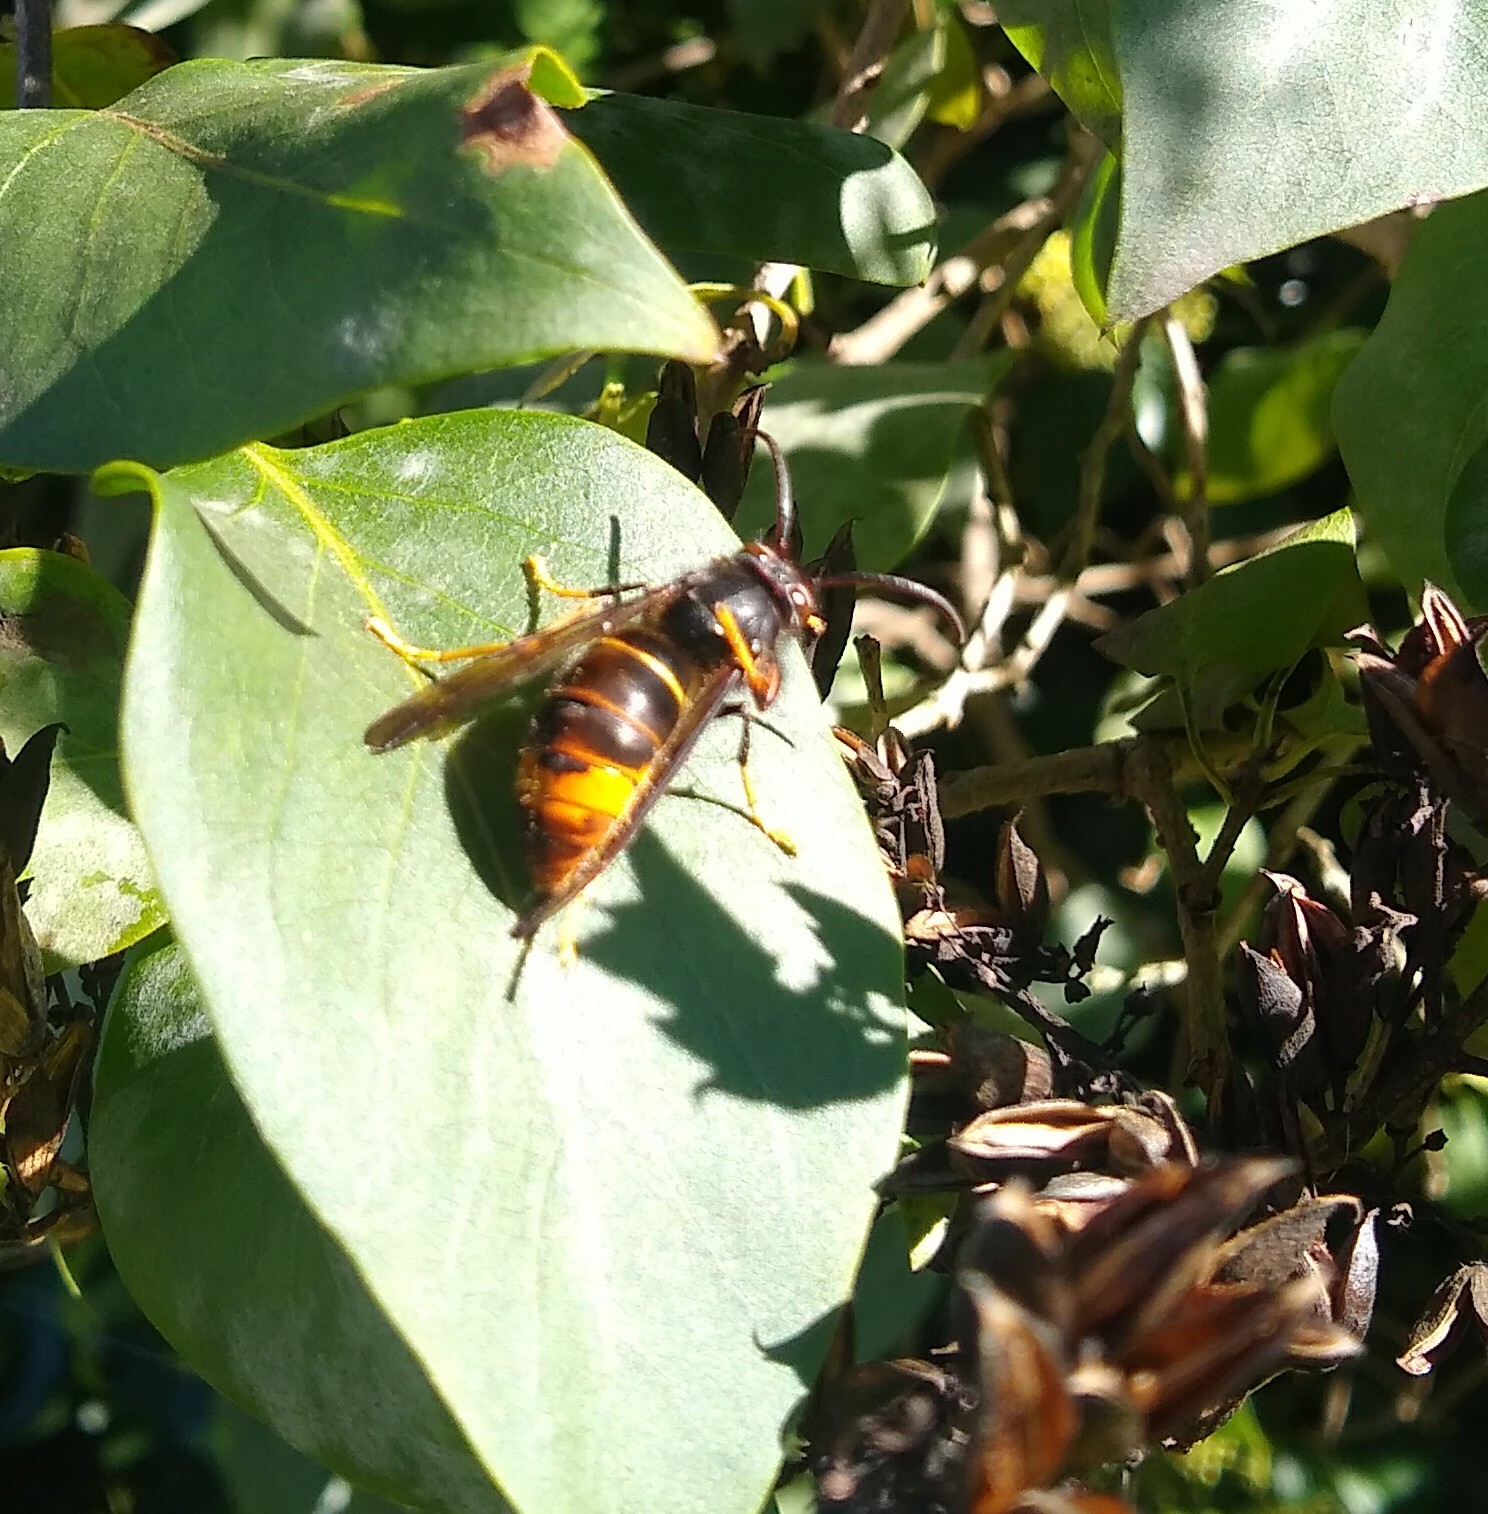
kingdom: Animalia
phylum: Arthropoda
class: Insecta
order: Hymenoptera
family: Vespidae
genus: Vespa
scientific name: Vespa velutina
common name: Asian hornet
